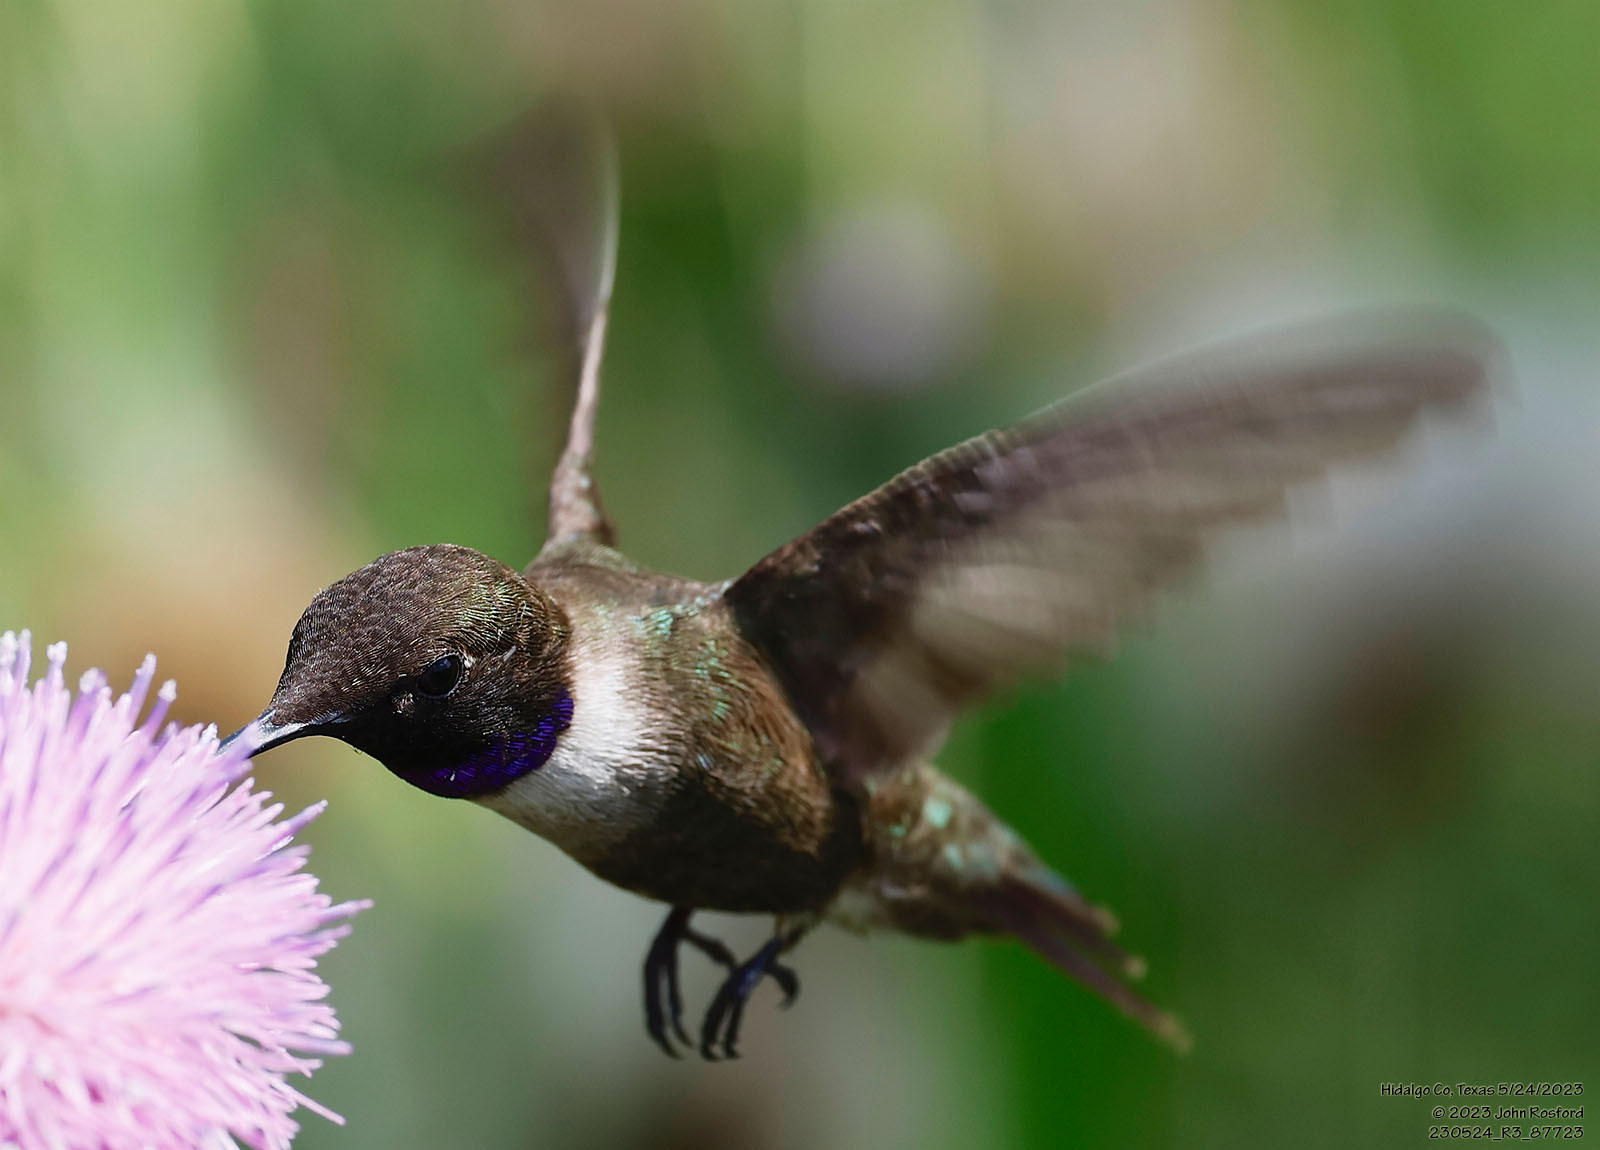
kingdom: Animalia
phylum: Chordata
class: Aves
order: Apodiformes
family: Trochilidae
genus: Archilochus
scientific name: Archilochus alexandri
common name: Black-chinned hummingbird
